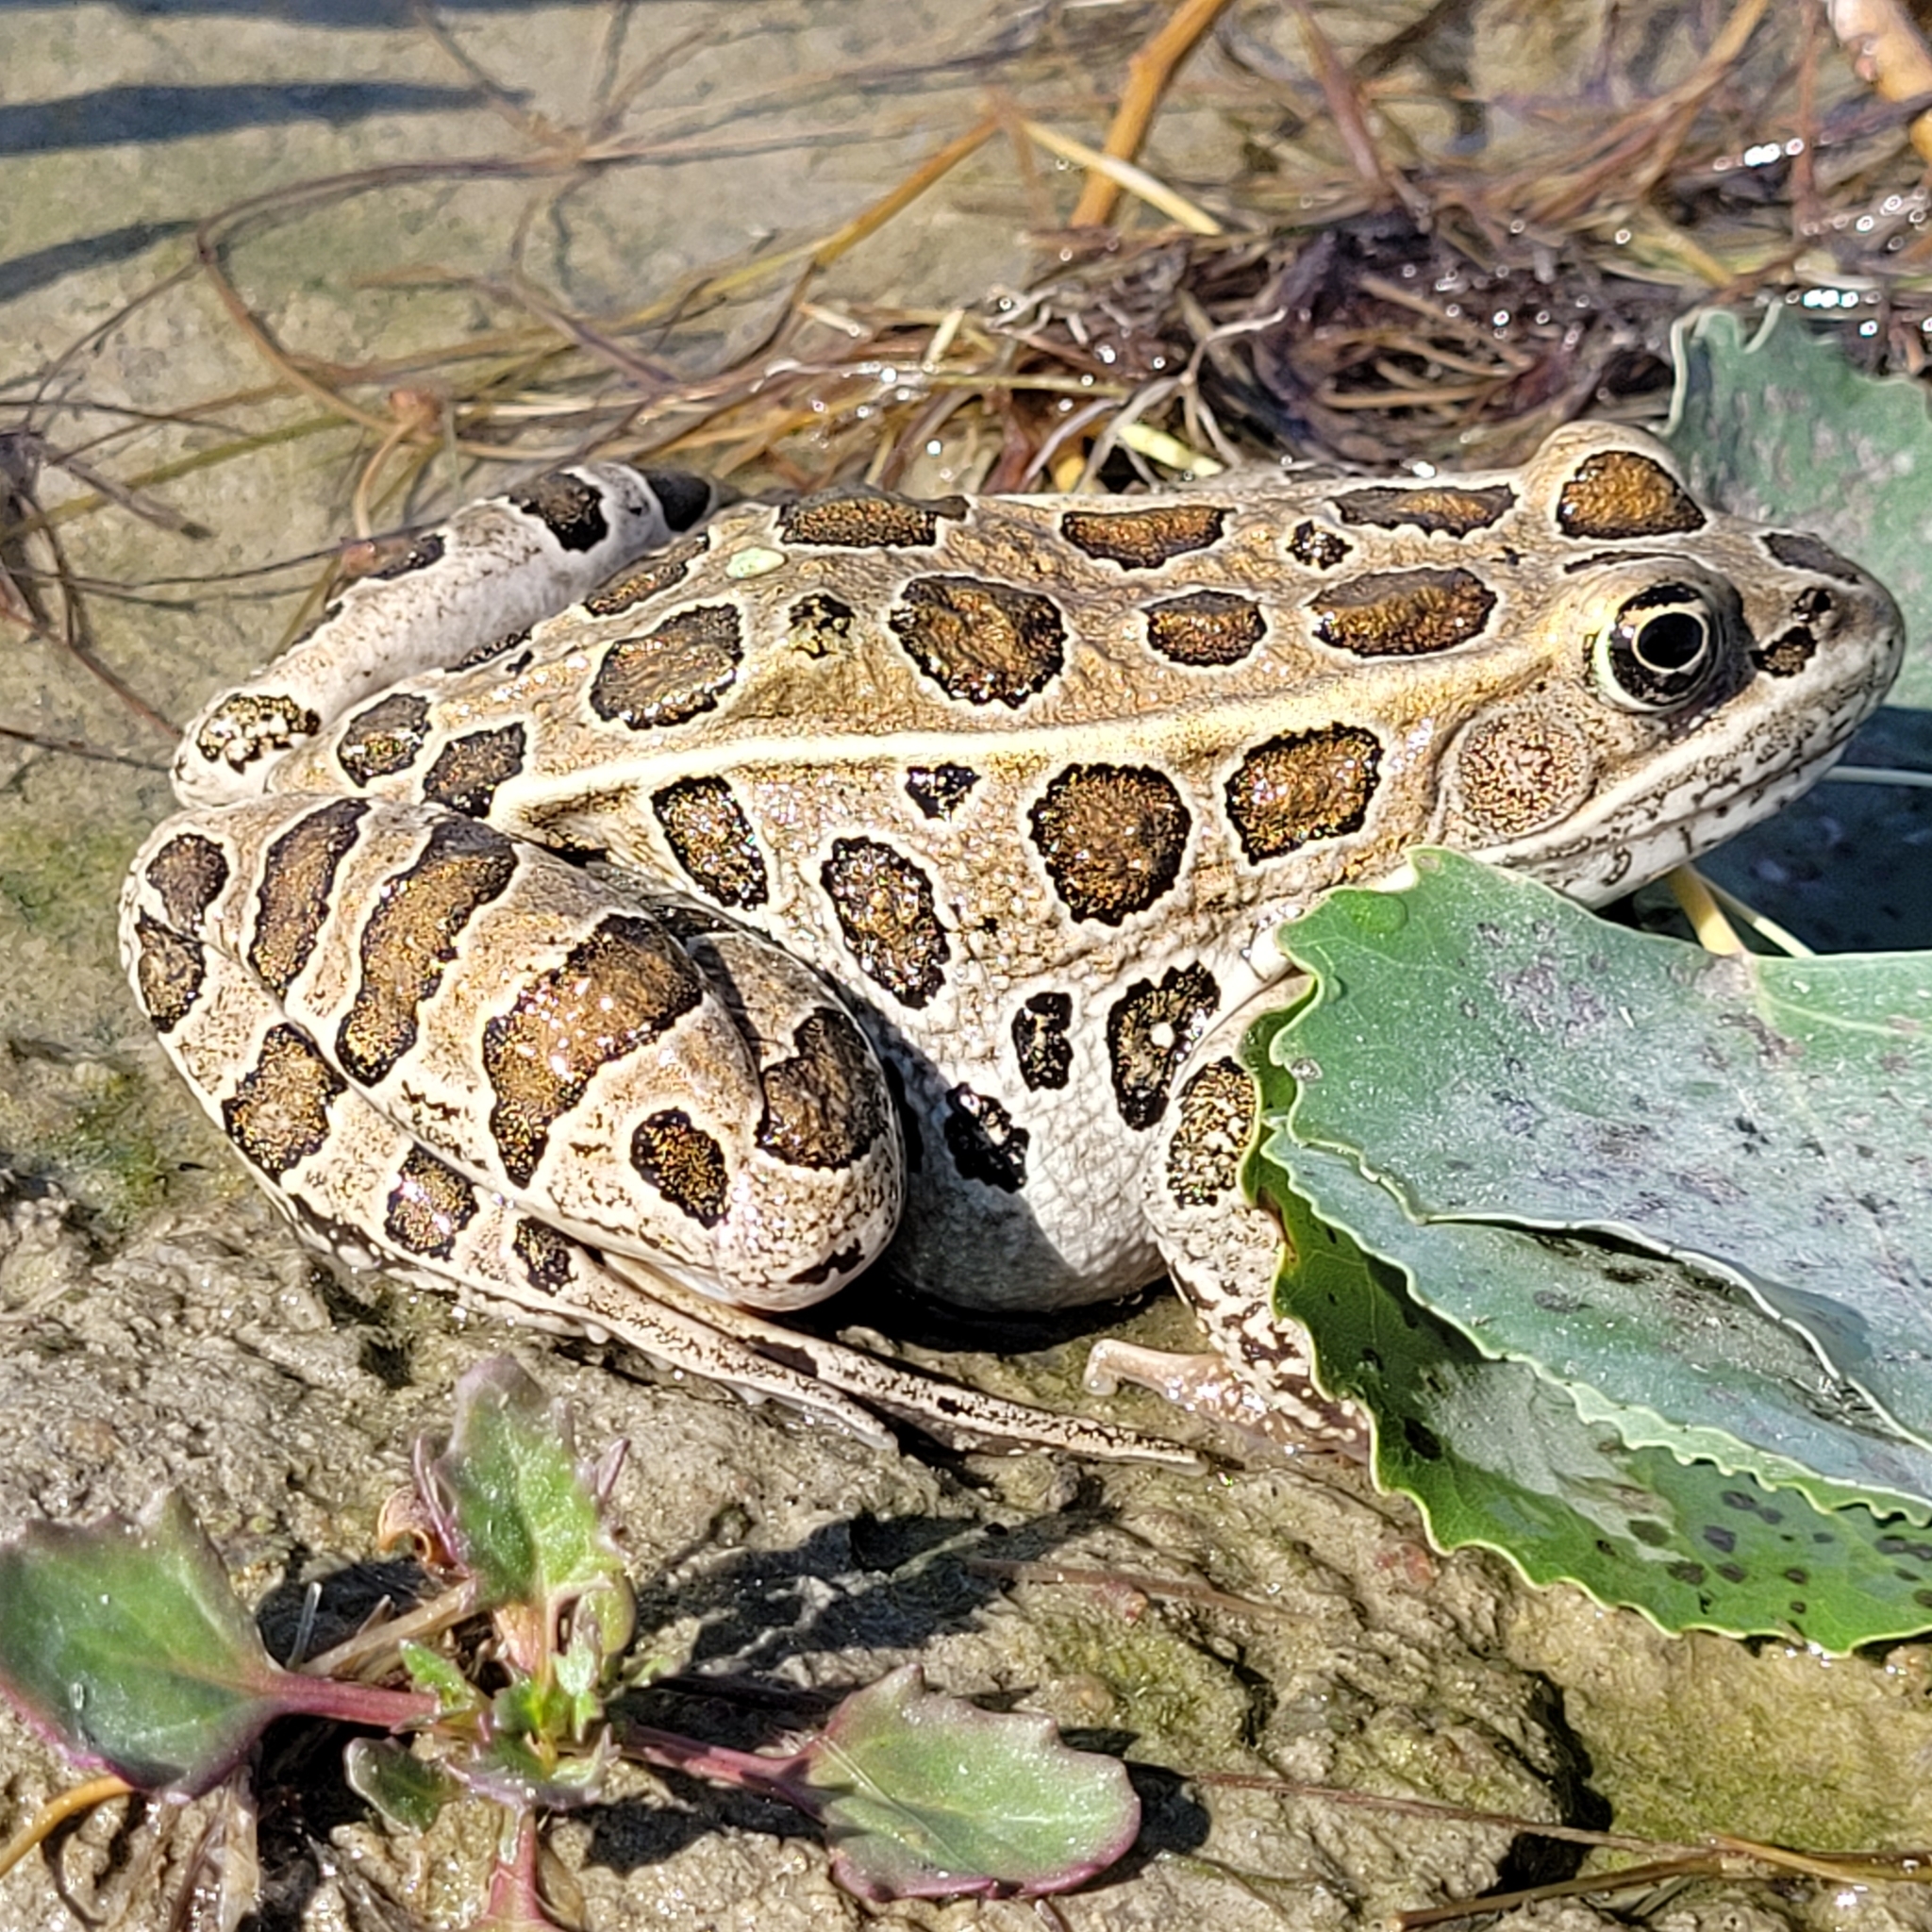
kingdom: Animalia
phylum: Chordata
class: Amphibia
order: Anura
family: Ranidae
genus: Lithobates
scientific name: Lithobates pipiens
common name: Northern leopard frog
